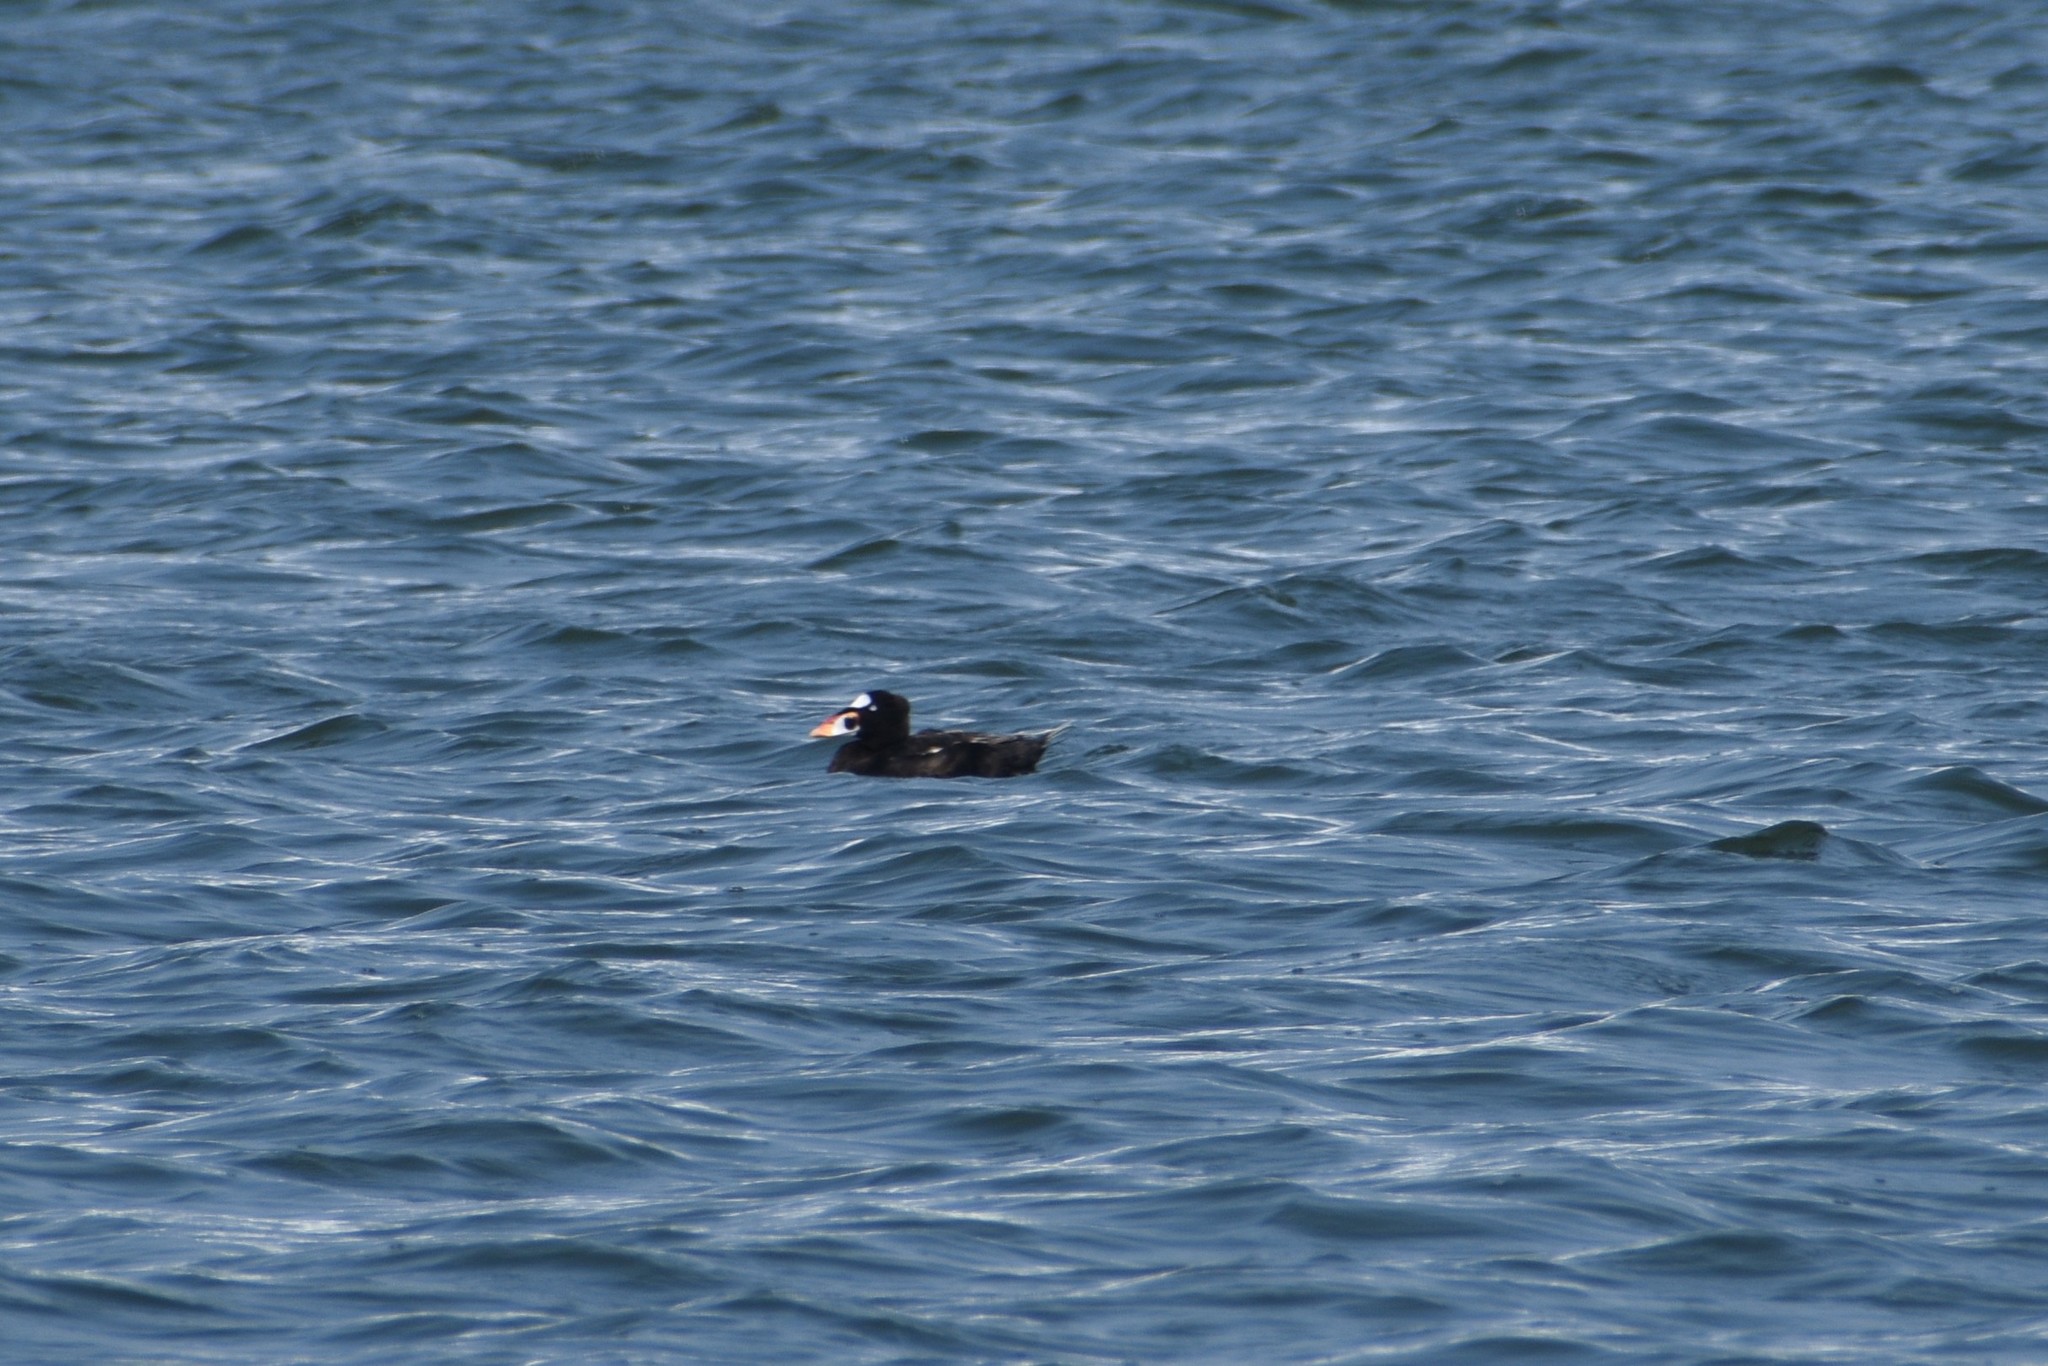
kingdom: Animalia
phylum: Chordata
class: Aves
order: Anseriformes
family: Anatidae
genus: Melanitta
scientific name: Melanitta perspicillata
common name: Surf scoter
